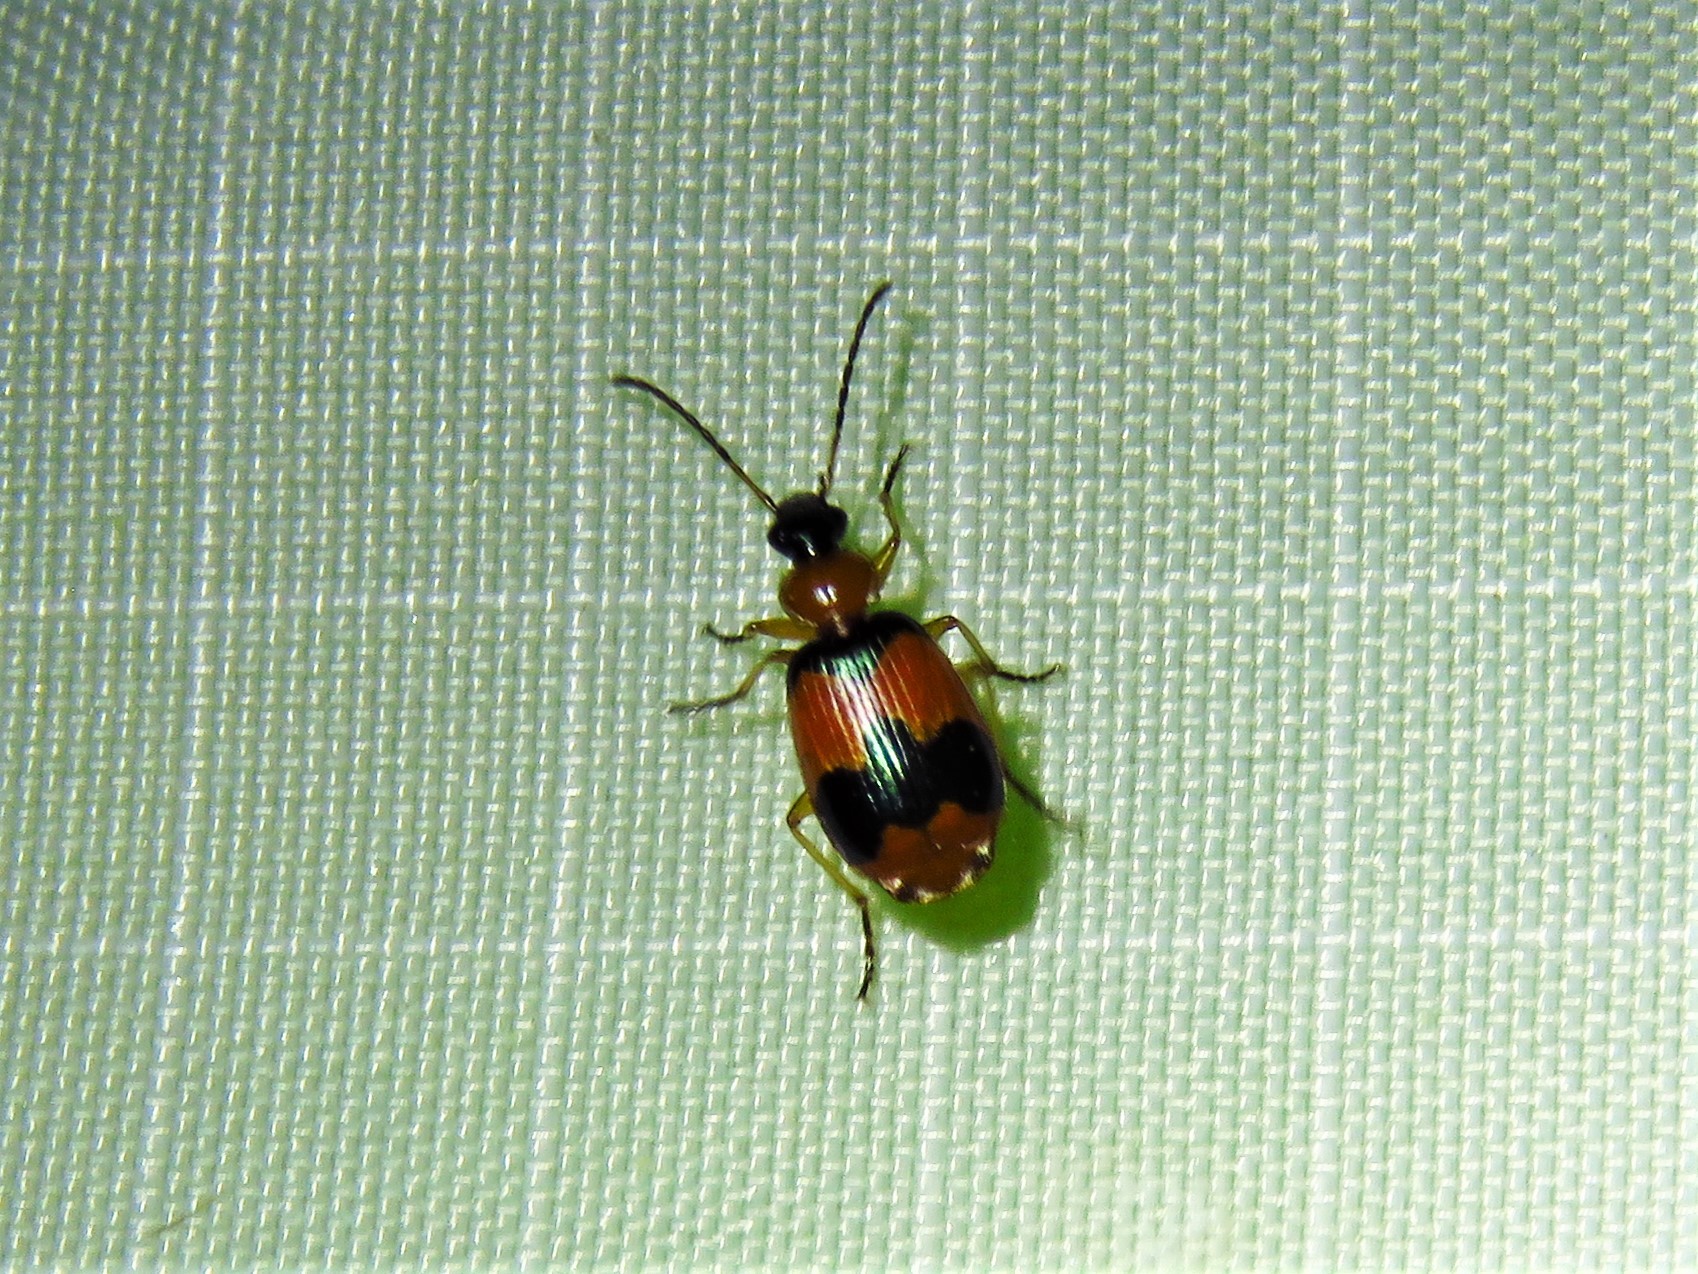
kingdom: Animalia
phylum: Arthropoda
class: Insecta
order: Coleoptera
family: Carabidae
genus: Lebia
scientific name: Lebia pulchella
